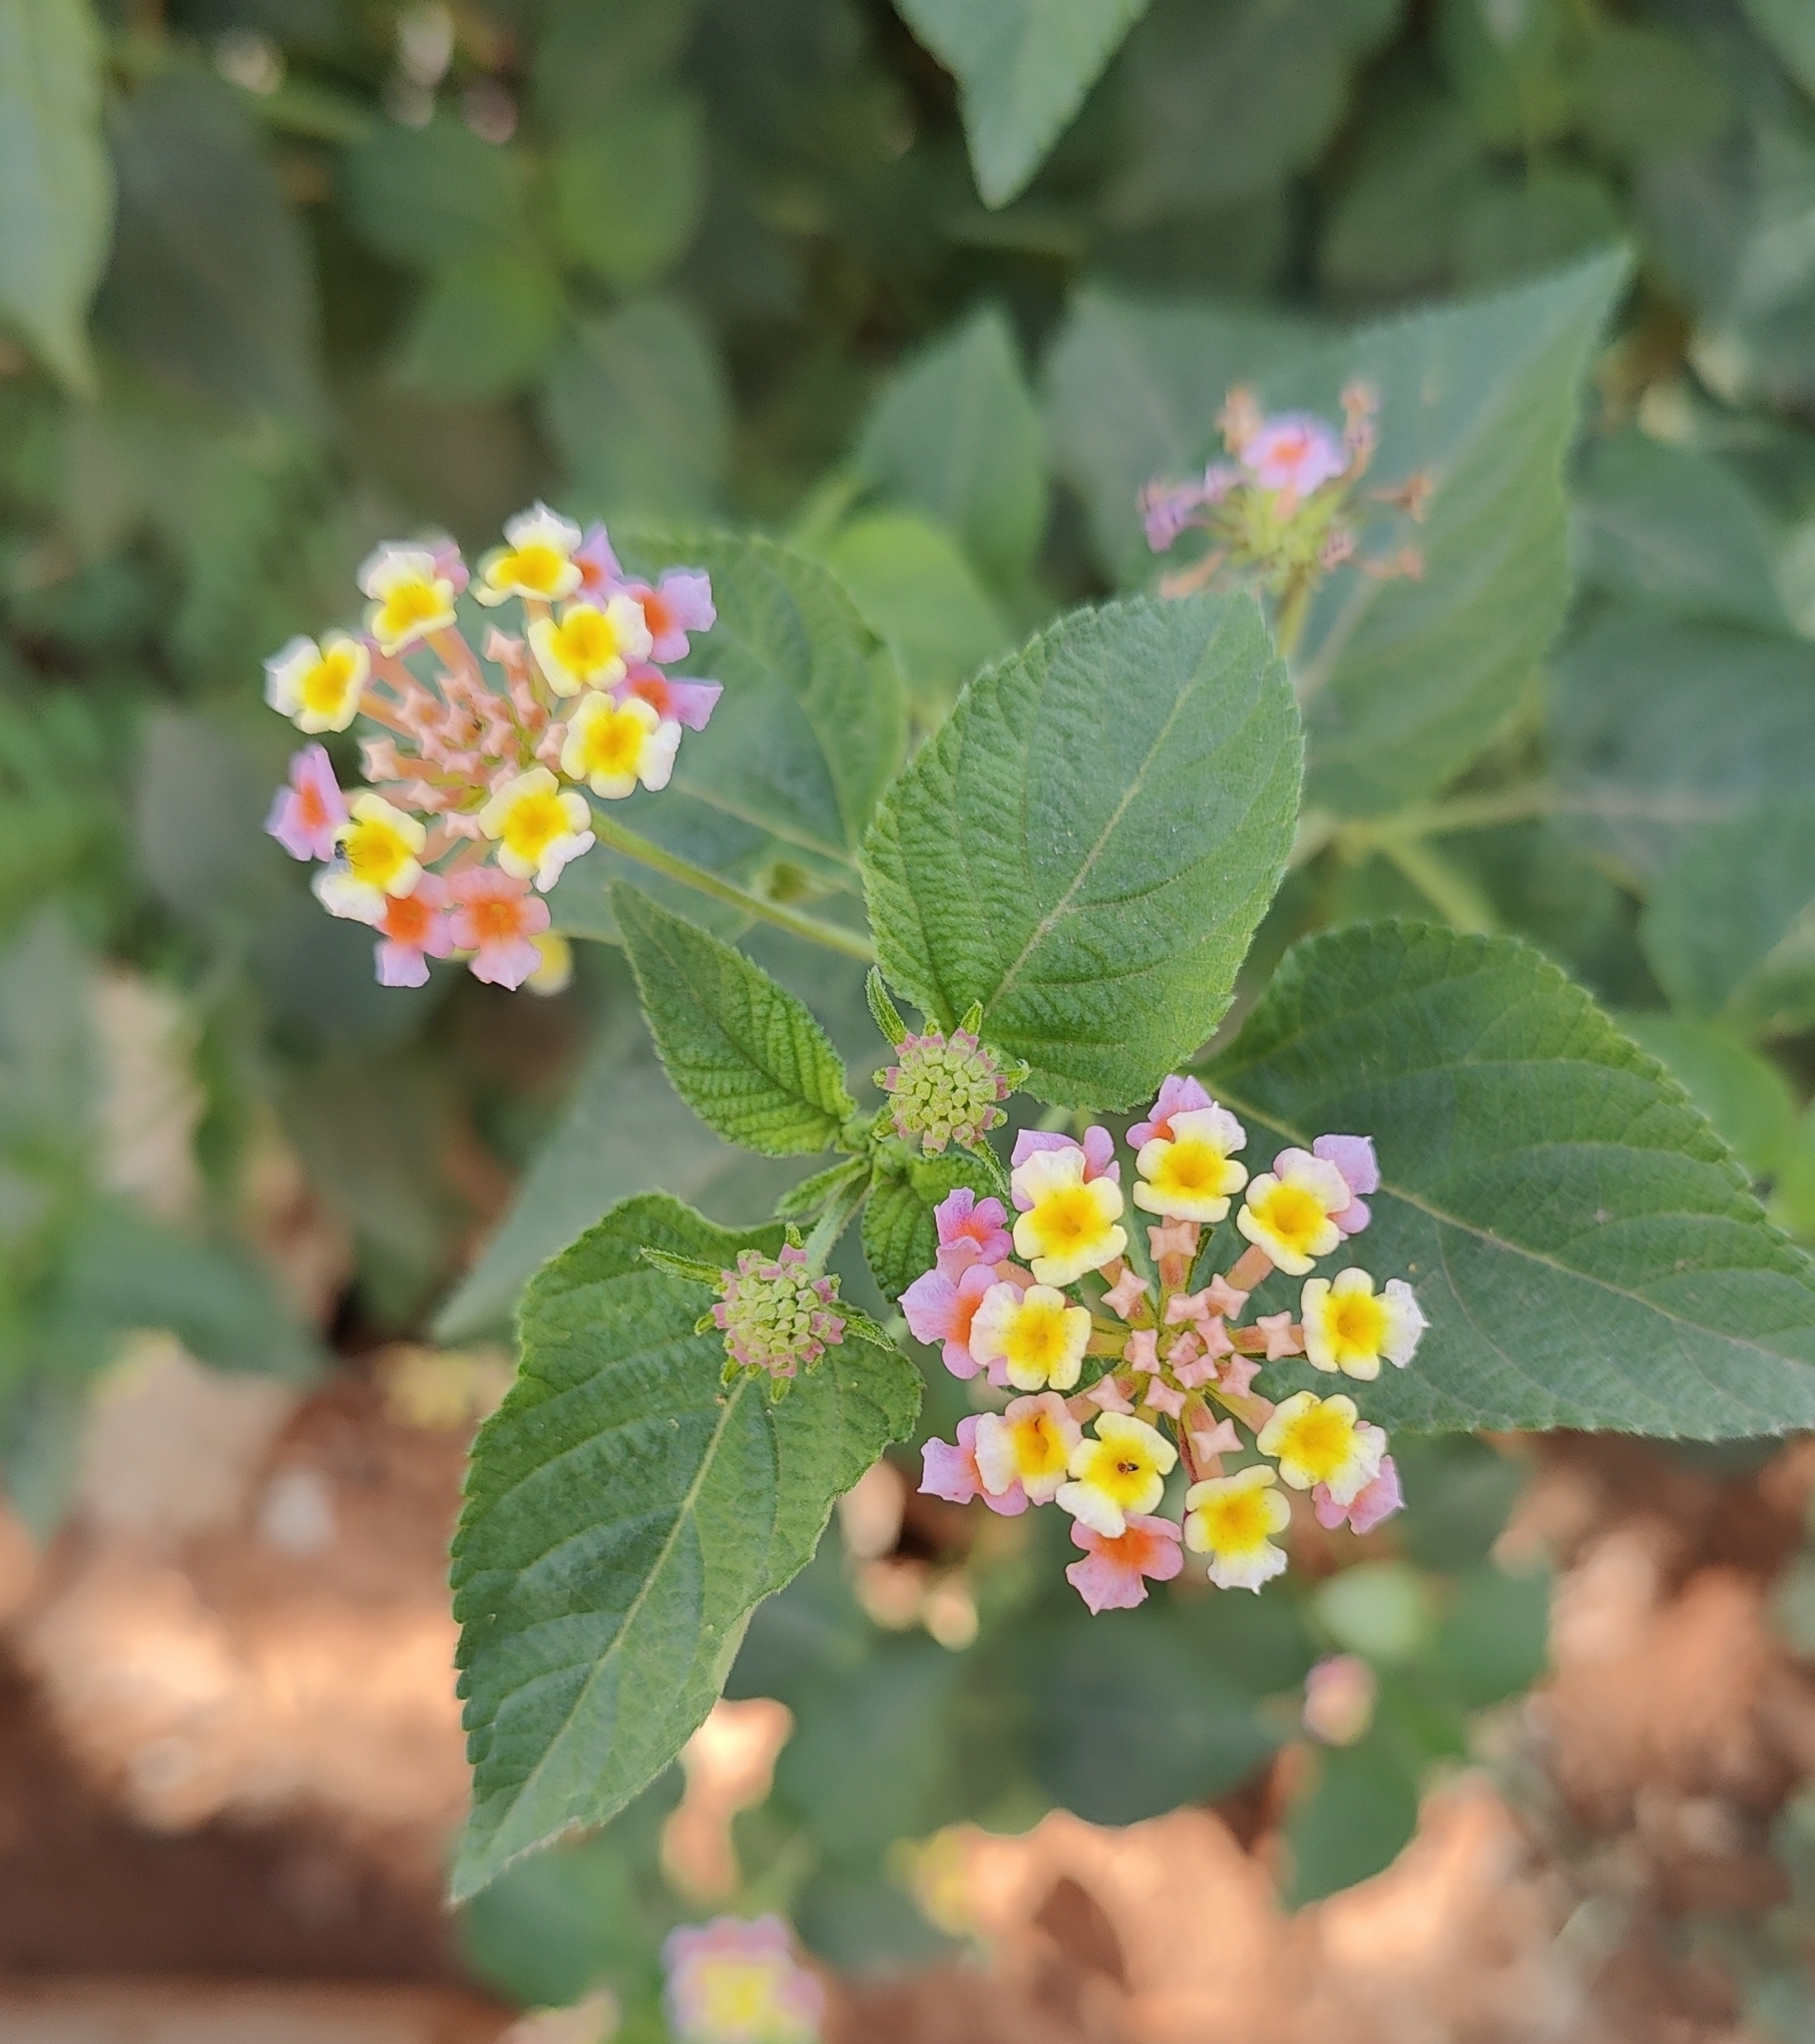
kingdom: Plantae
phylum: Tracheophyta
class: Magnoliopsida
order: Lamiales
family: Verbenaceae
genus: Lantana
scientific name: Lantana camara
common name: Lantana
